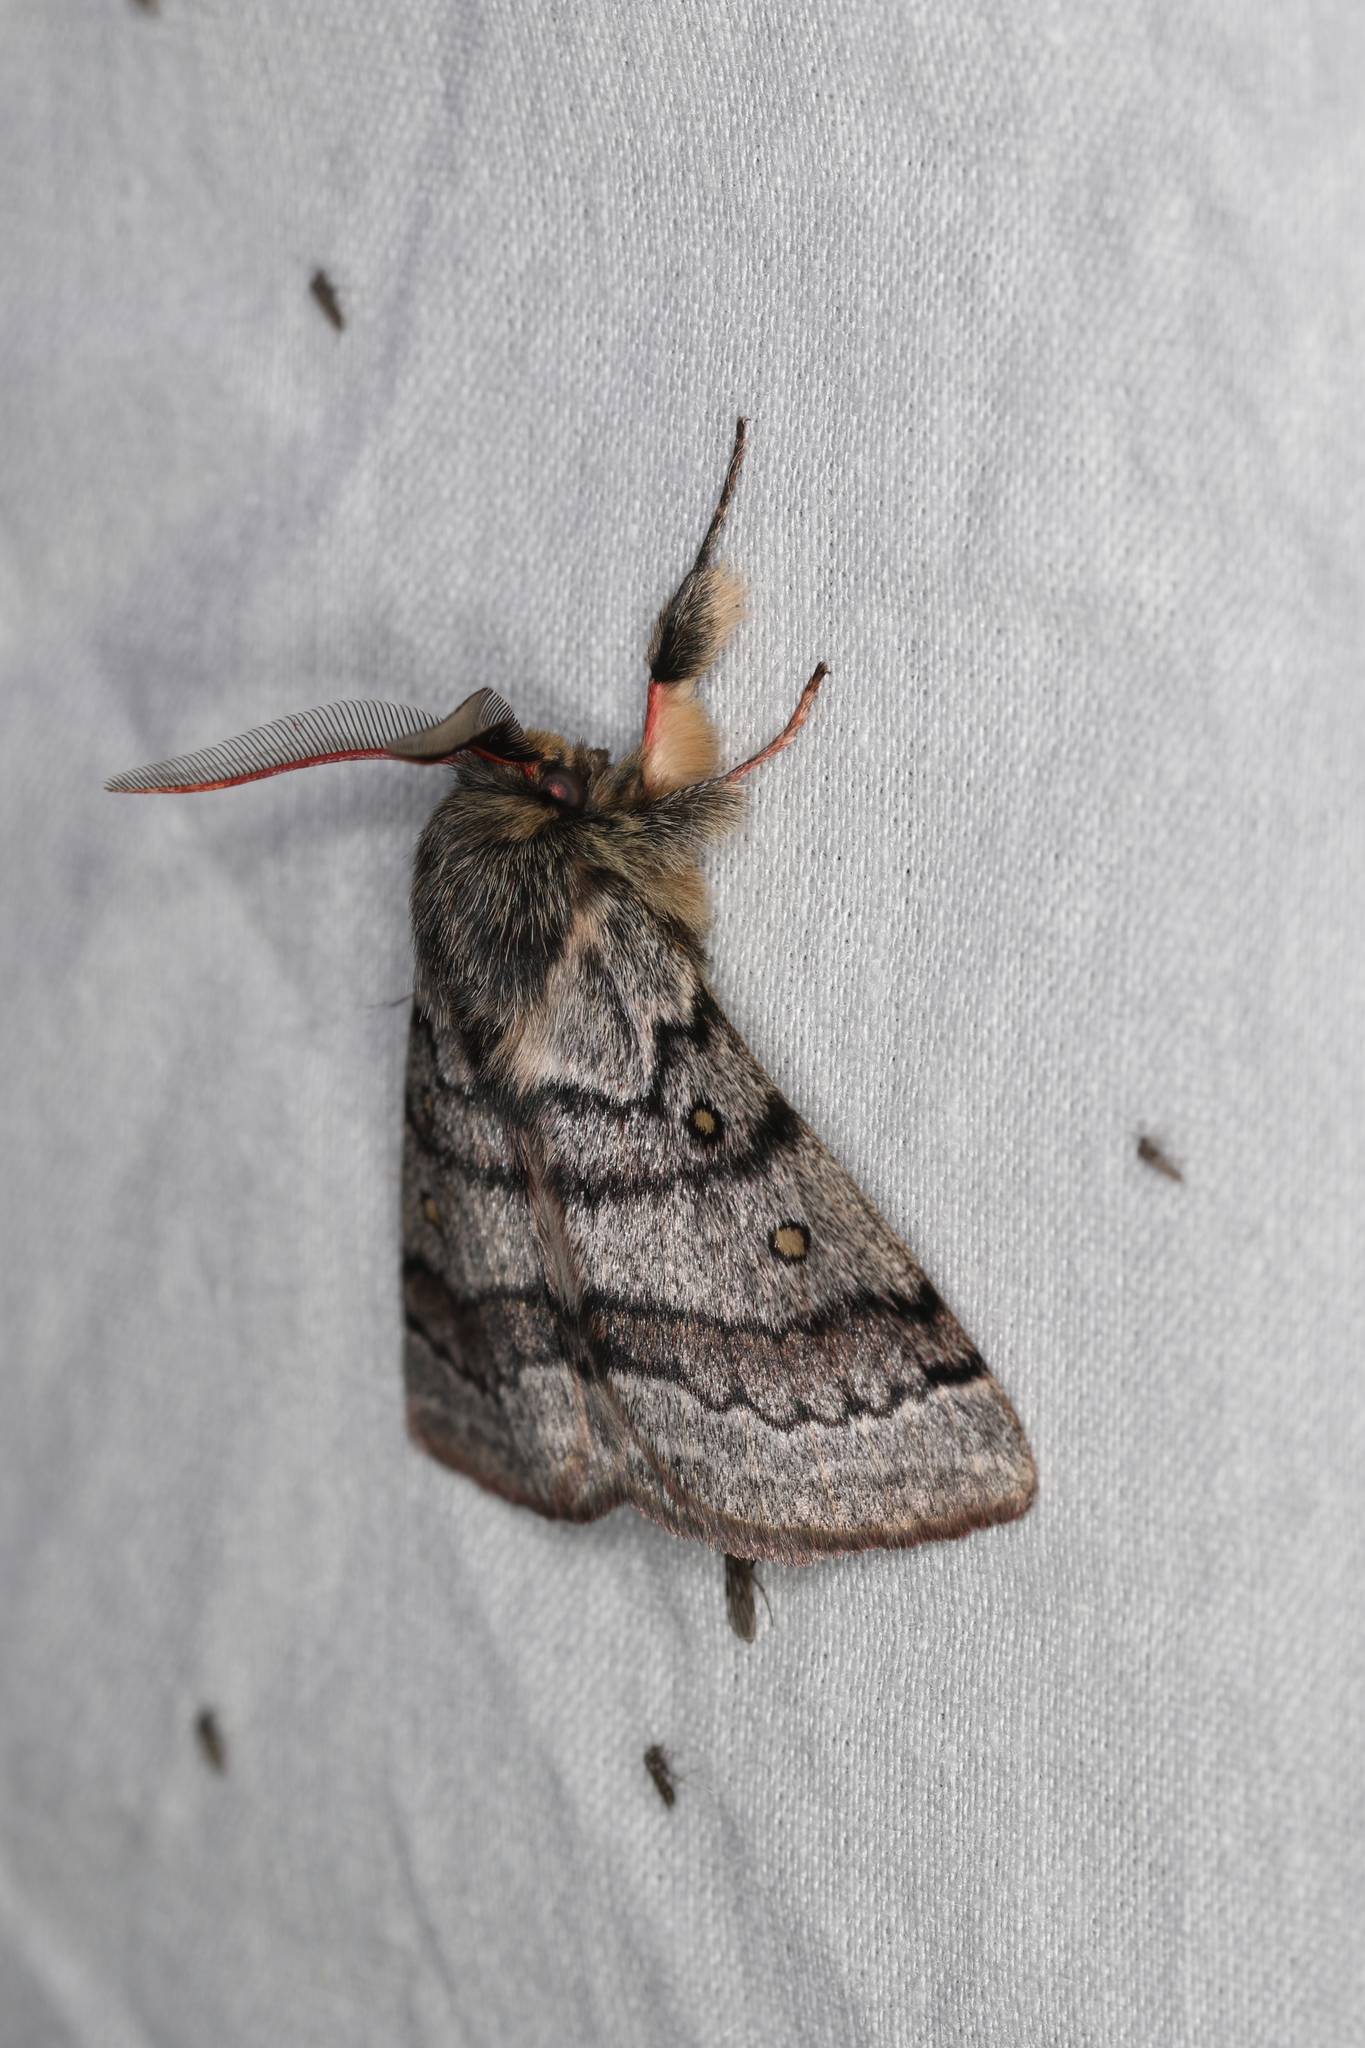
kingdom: Animalia
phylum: Arthropoda
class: Insecta
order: Lepidoptera
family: Anthelidae
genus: Anthela
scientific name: Anthela tetraphrica
